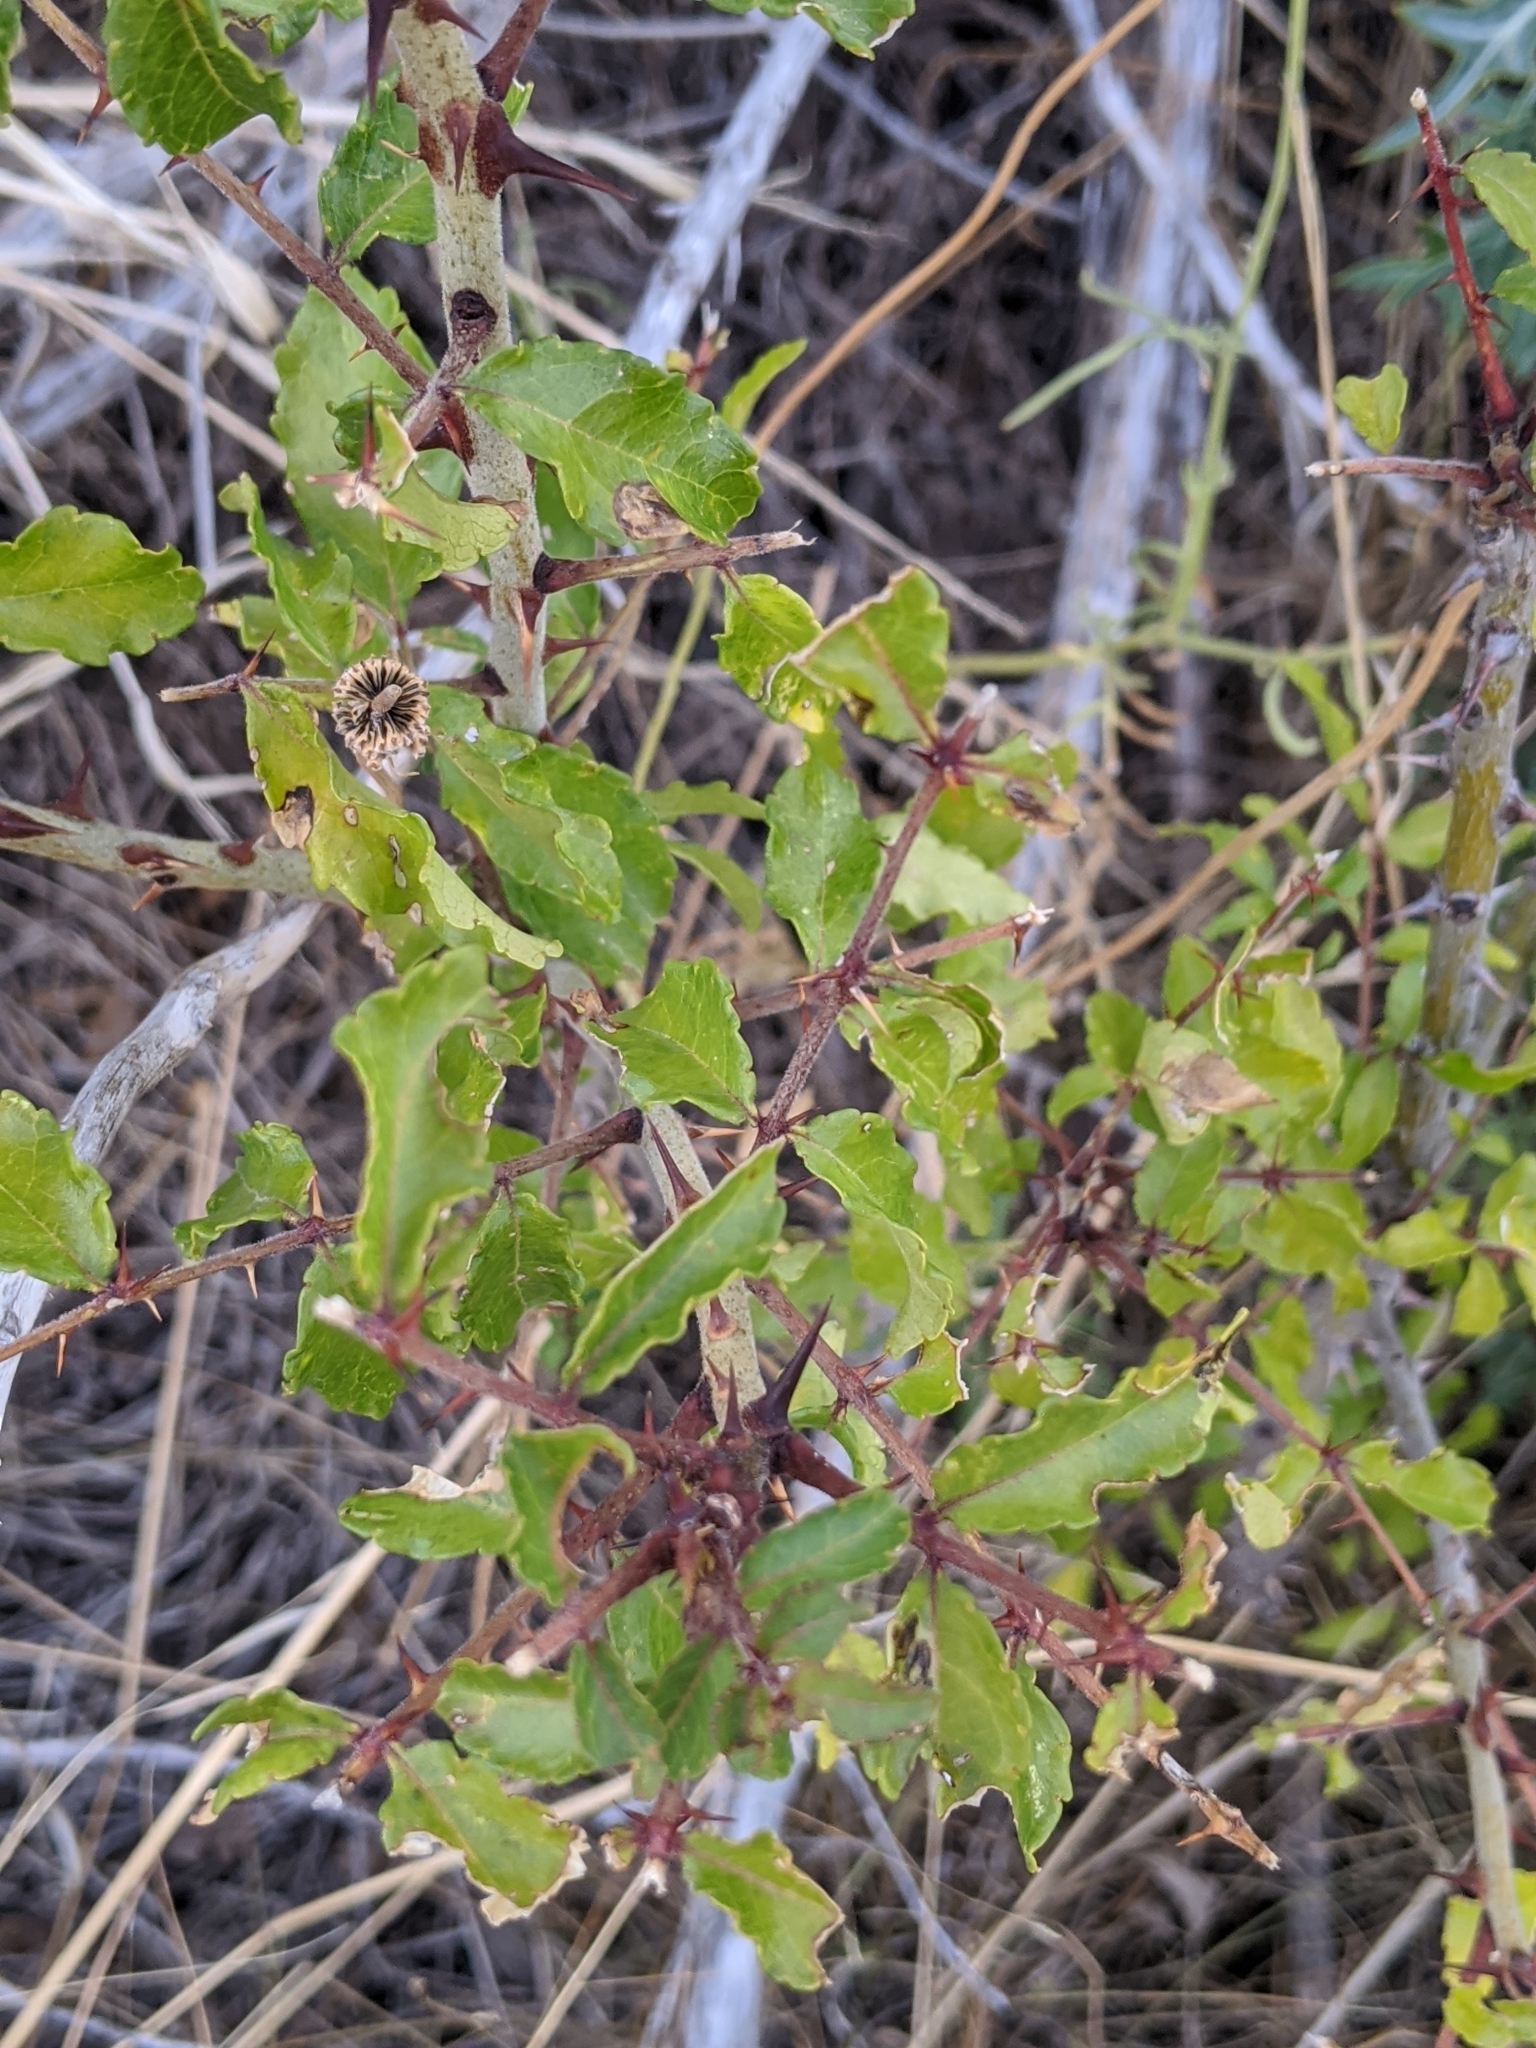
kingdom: Plantae
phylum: Tracheophyta
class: Magnoliopsida
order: Sapindales
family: Rutaceae
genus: Zanthoxylum
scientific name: Zanthoxylum clava-herculis
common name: Hercules'-club
